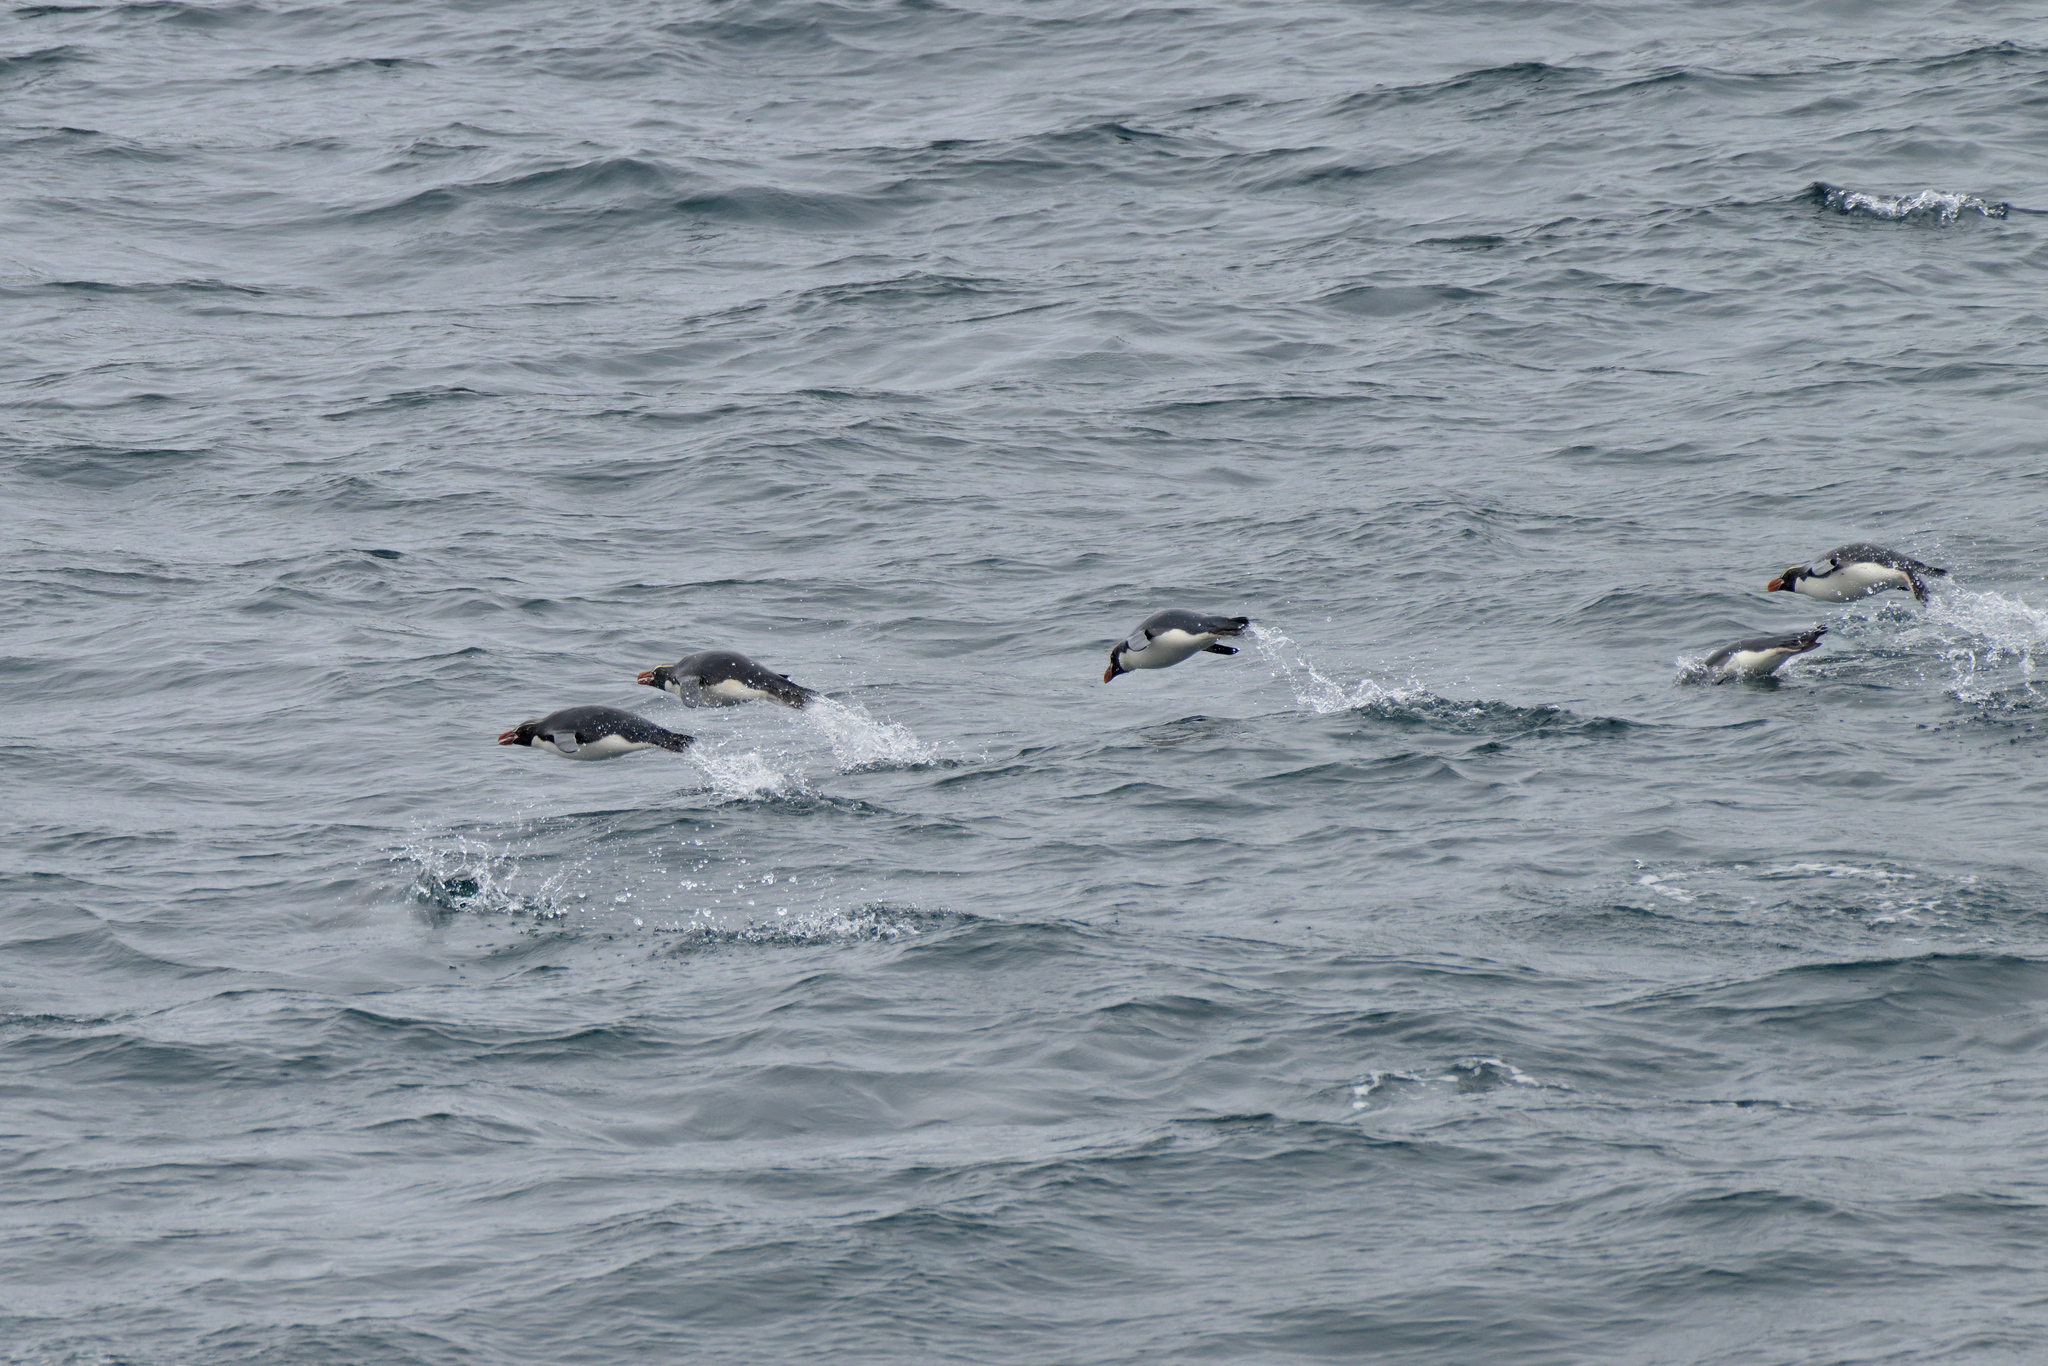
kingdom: Animalia
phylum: Chordata
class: Aves
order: Sphenisciformes
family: Spheniscidae
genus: Eudyptes
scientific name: Eudyptes robustus
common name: Snares penguin
